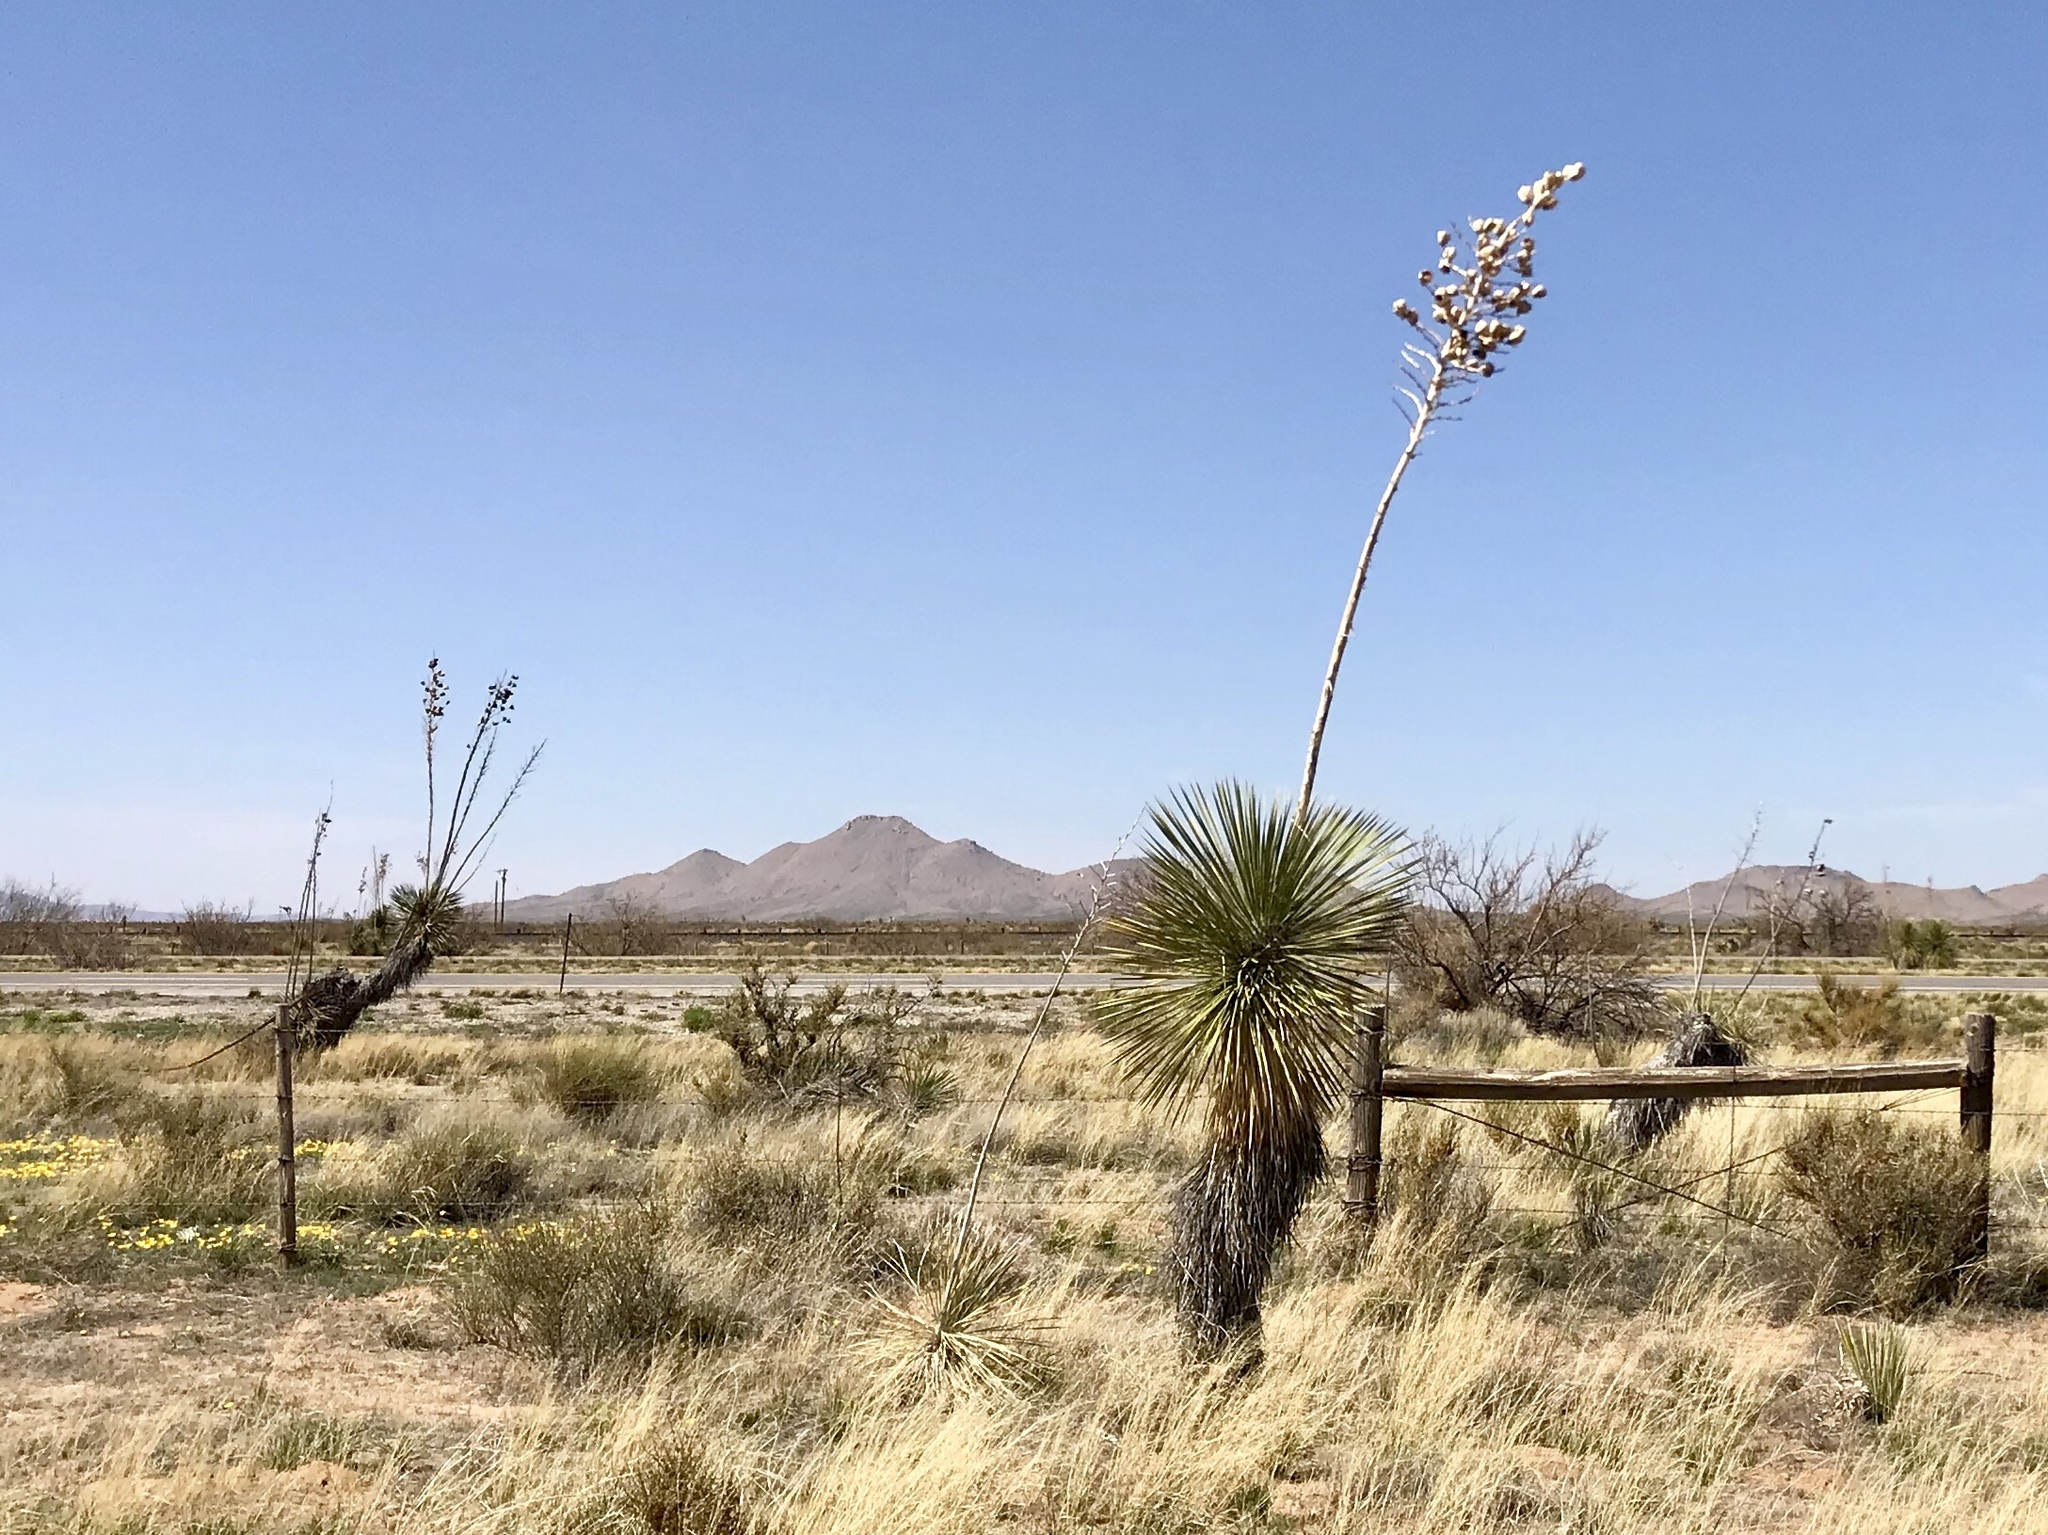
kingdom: Plantae
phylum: Tracheophyta
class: Liliopsida
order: Asparagales
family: Asparagaceae
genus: Yucca
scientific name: Yucca elata
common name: Palmella
